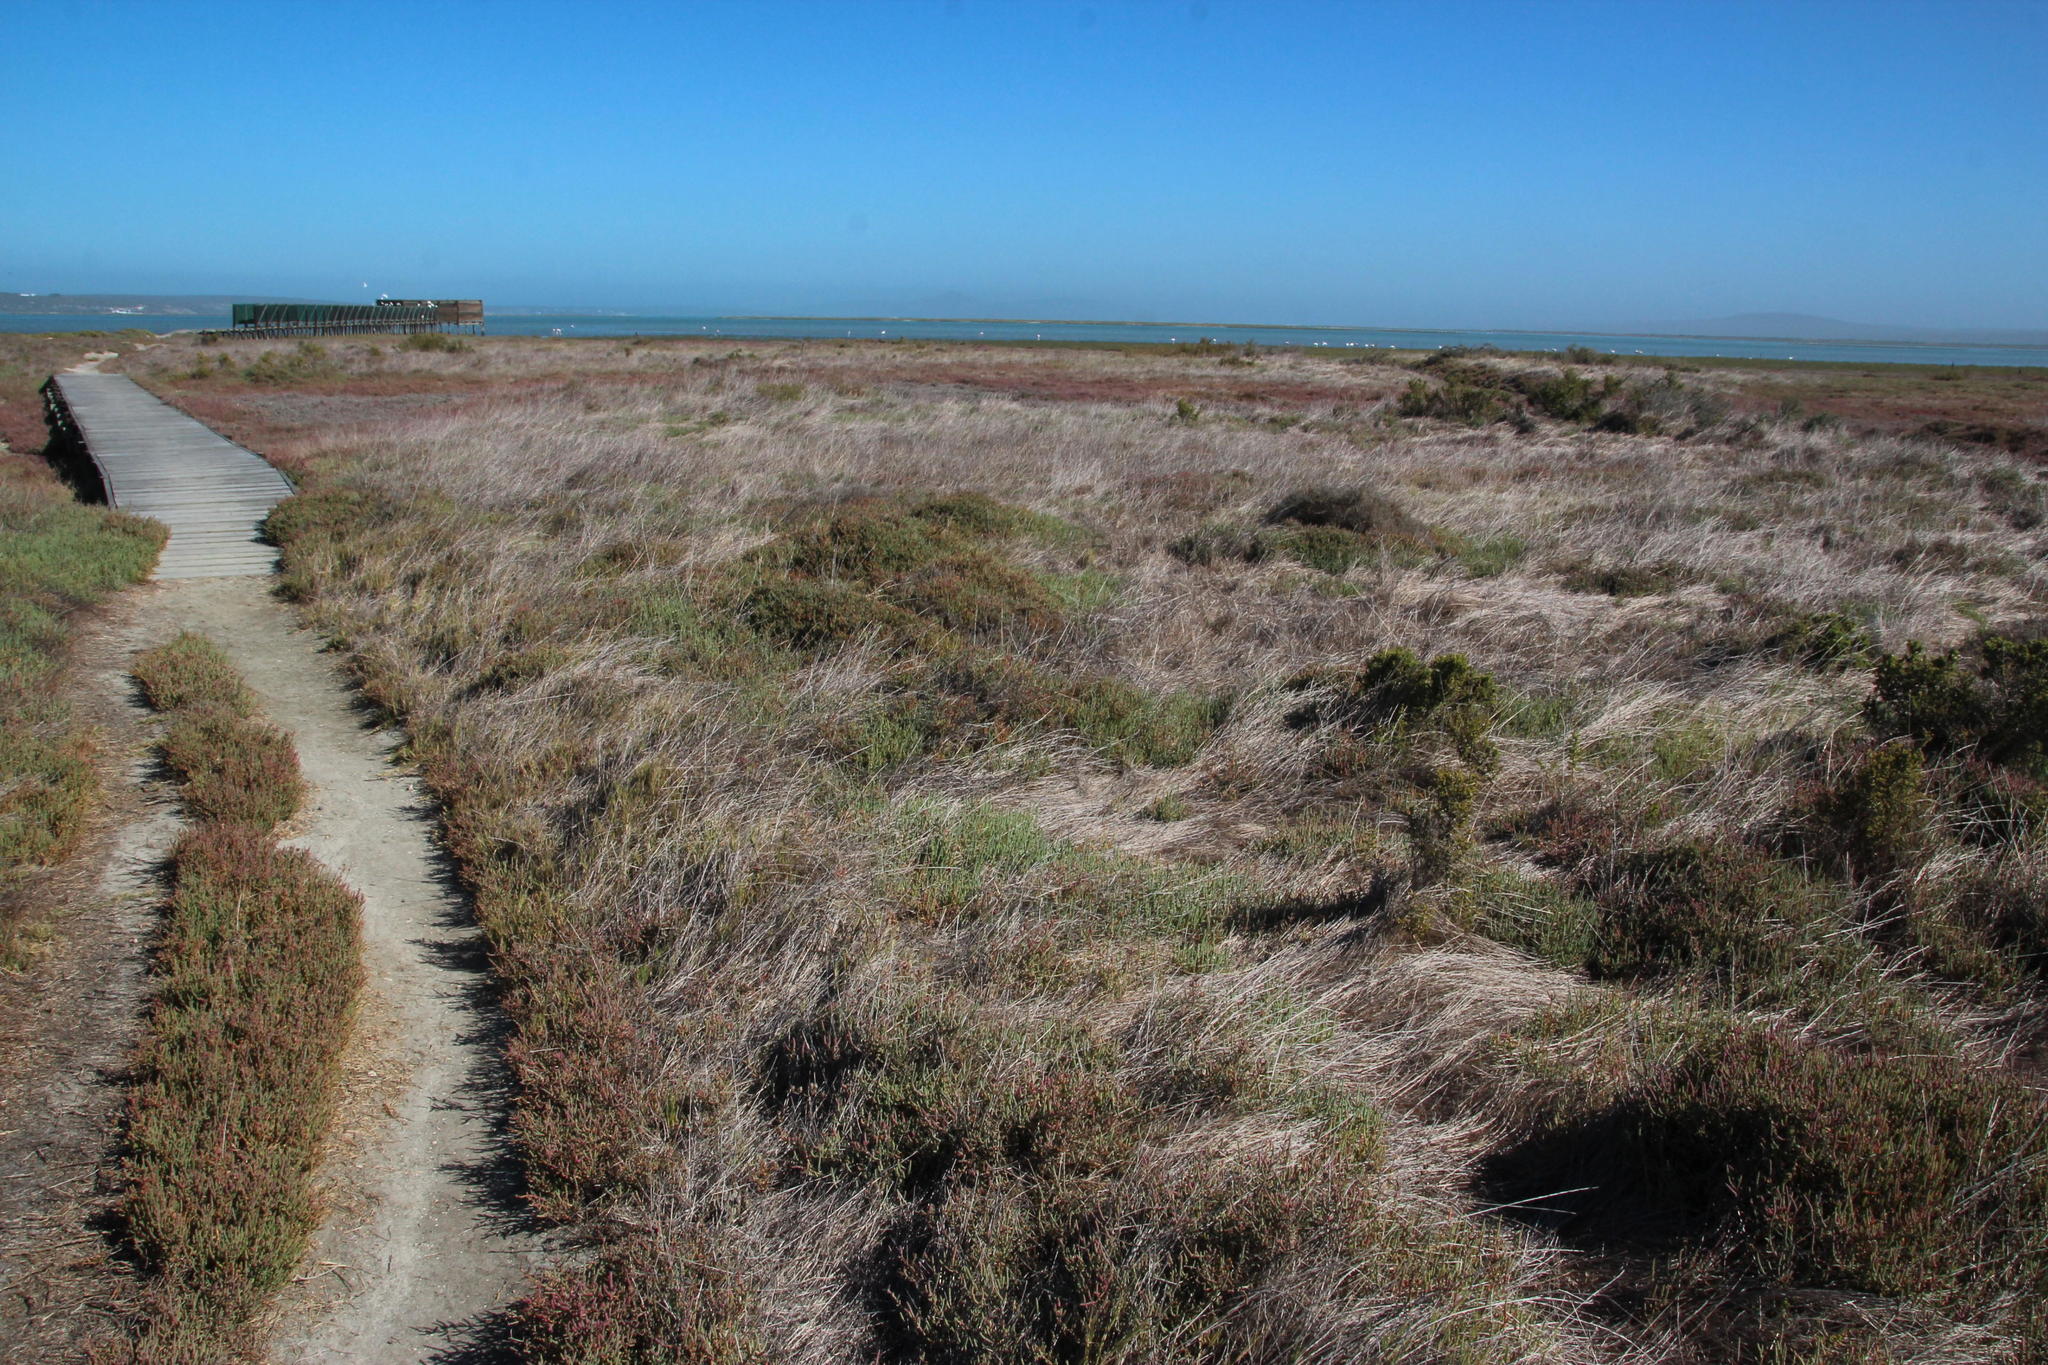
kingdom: Plantae
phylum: Tracheophyta
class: Liliopsida
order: Poales
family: Poaceae
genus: Sporobolus
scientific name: Sporobolus virginicus
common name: Beach dropseed
